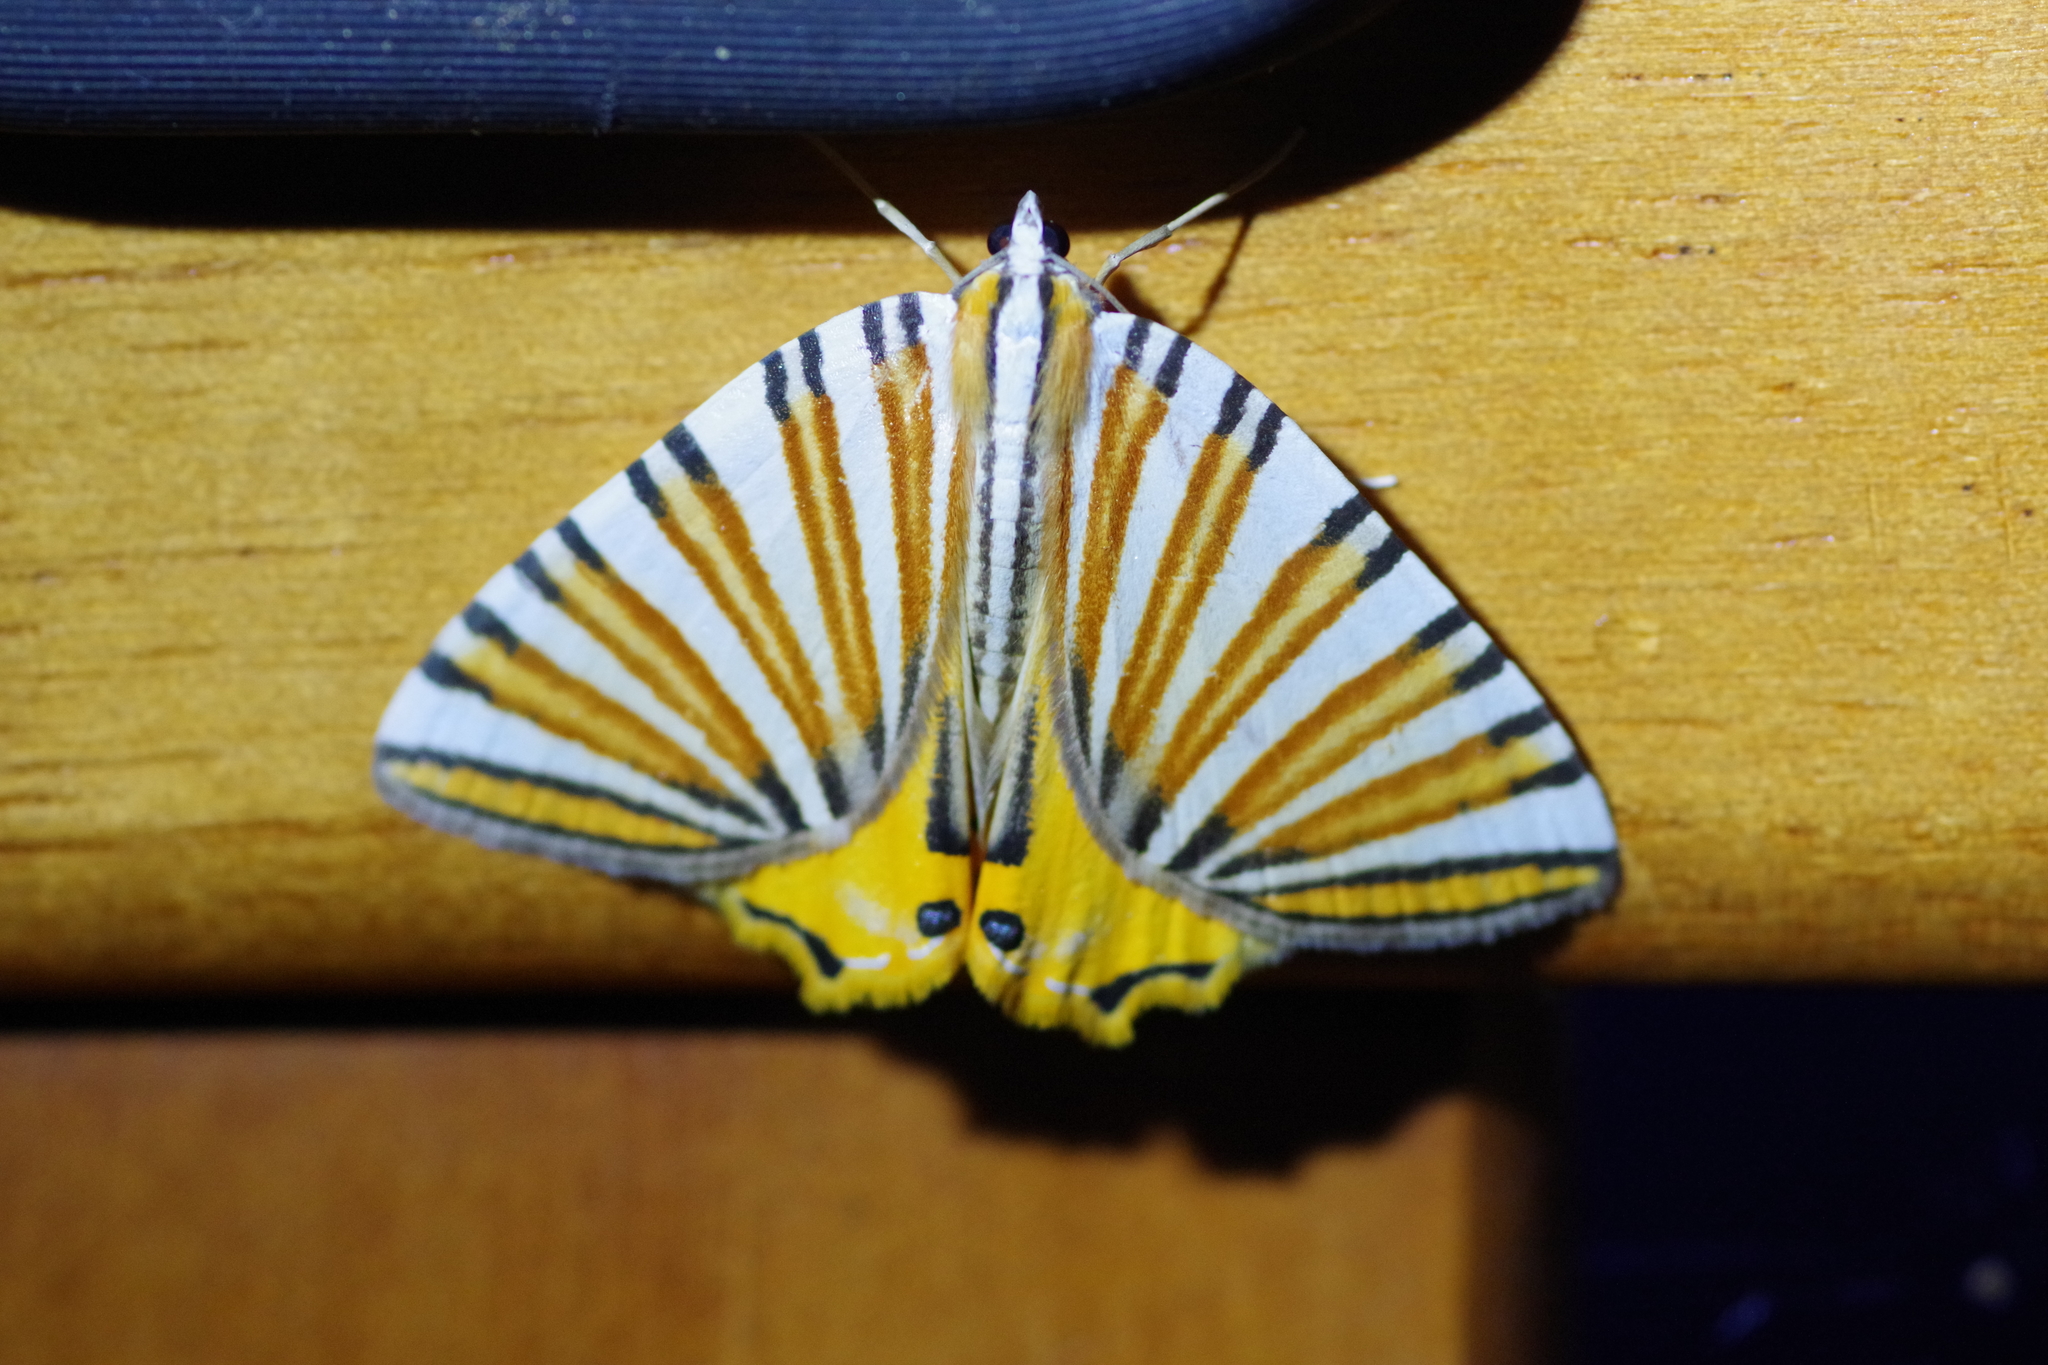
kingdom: Animalia
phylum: Arthropoda
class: Insecta
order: Lepidoptera
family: Geometridae
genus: Pityeja
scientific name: Pityeja histrionaria
